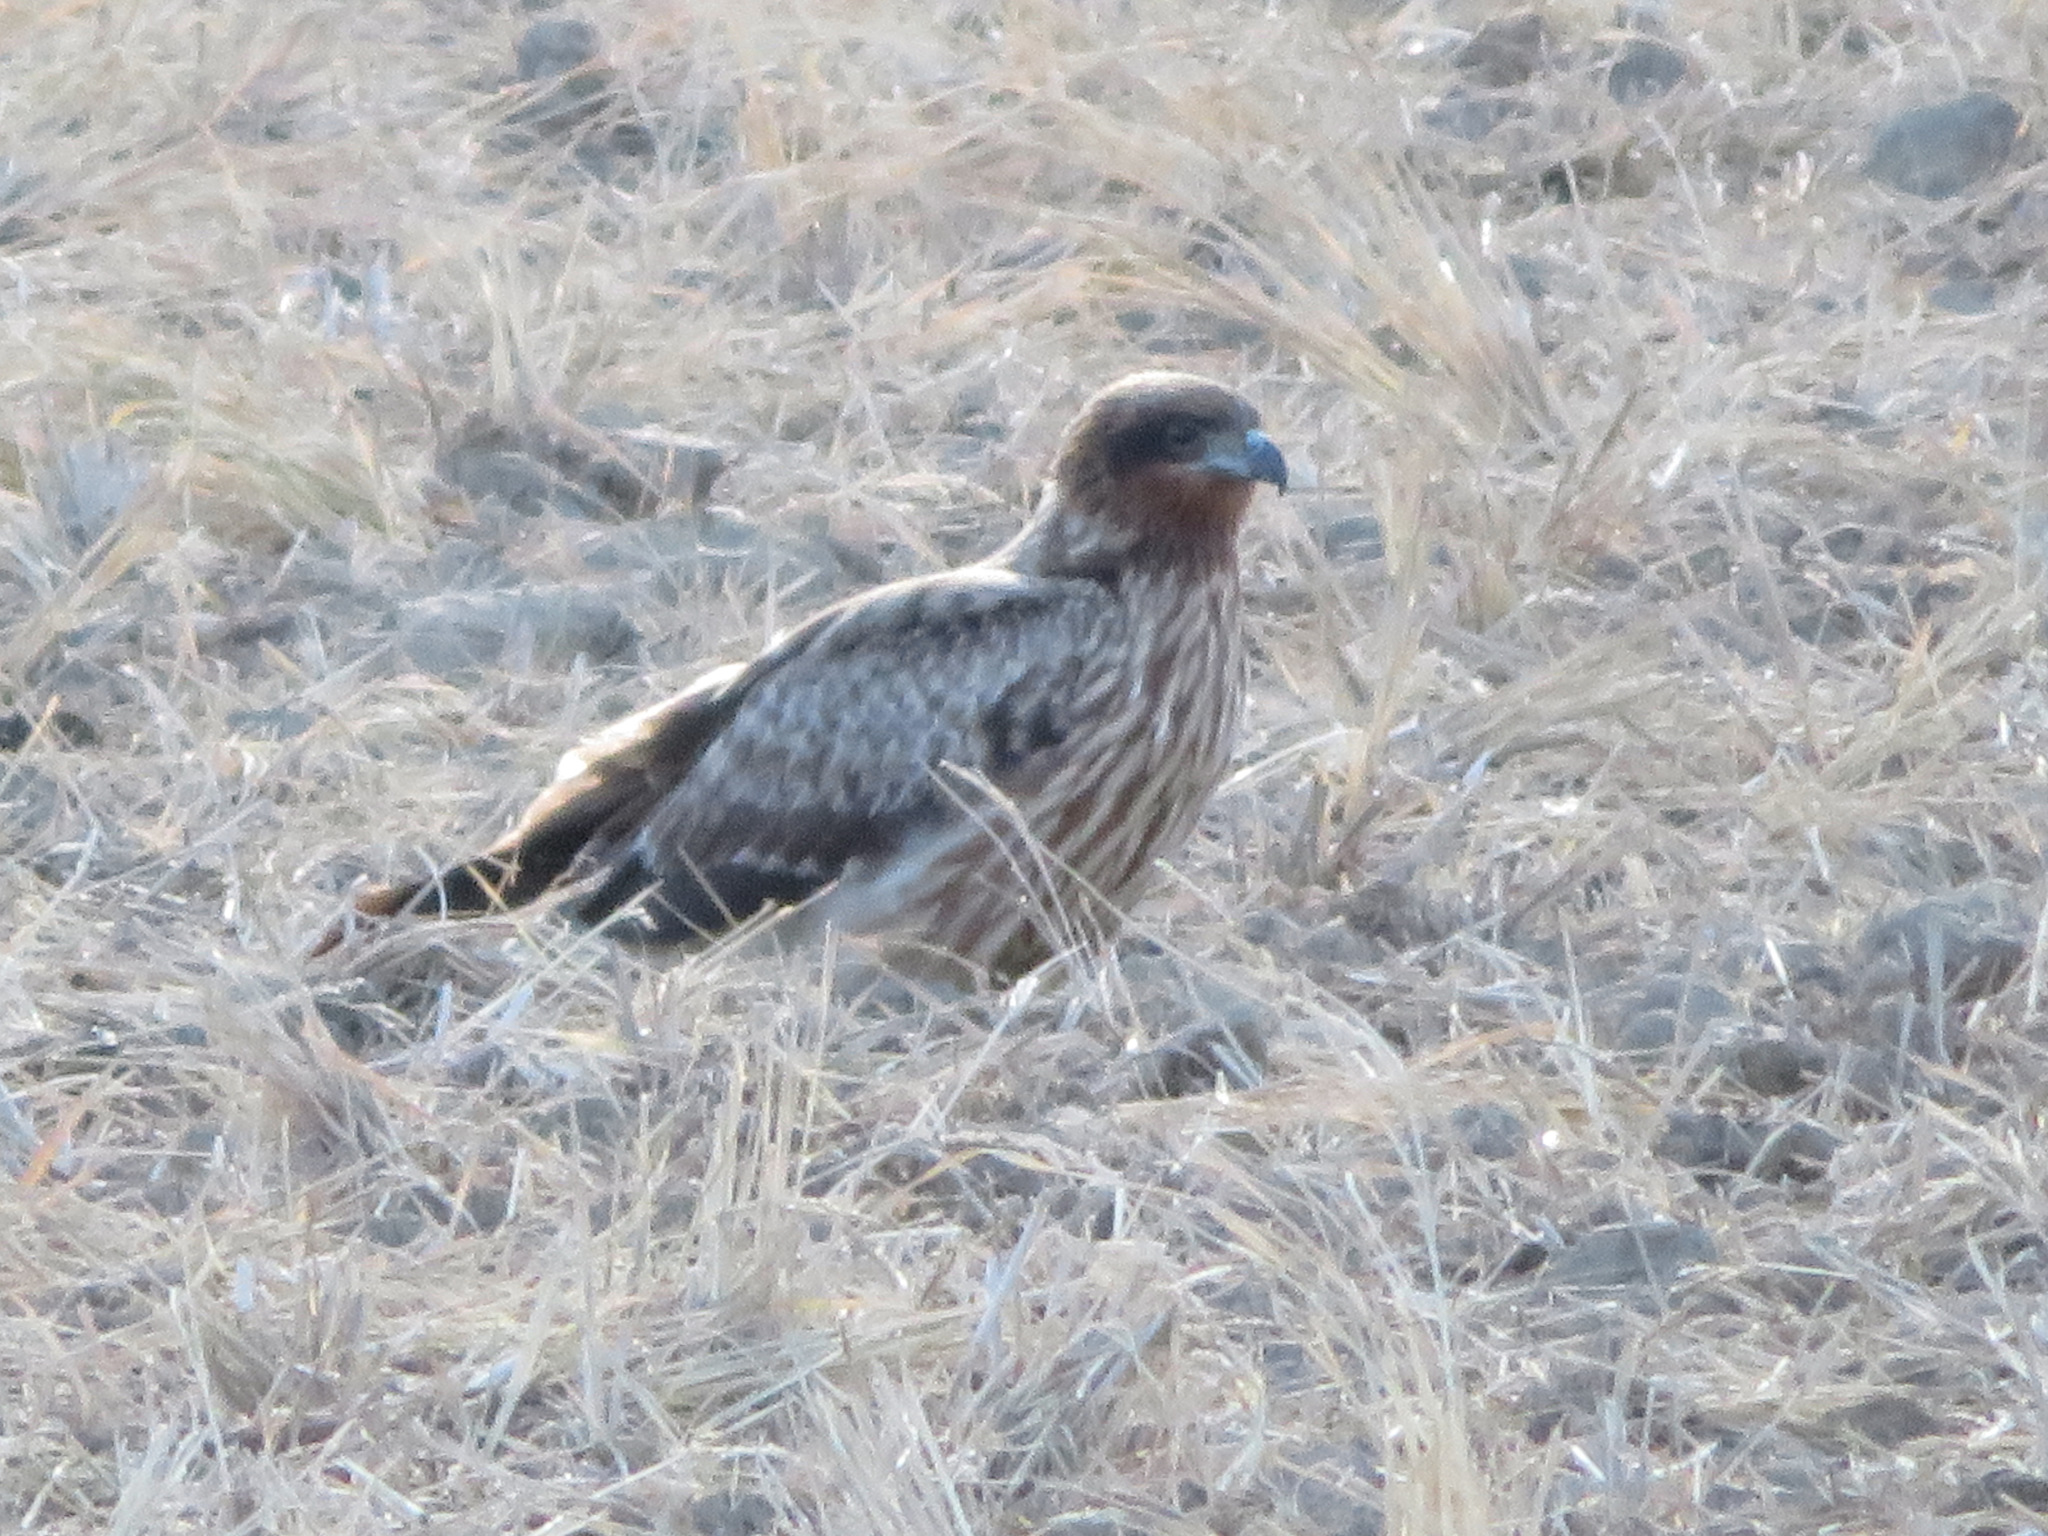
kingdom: Animalia
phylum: Chordata
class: Aves
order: Accipitriformes
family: Accipitridae
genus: Milvus
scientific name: Milvus migrans
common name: Black kite
